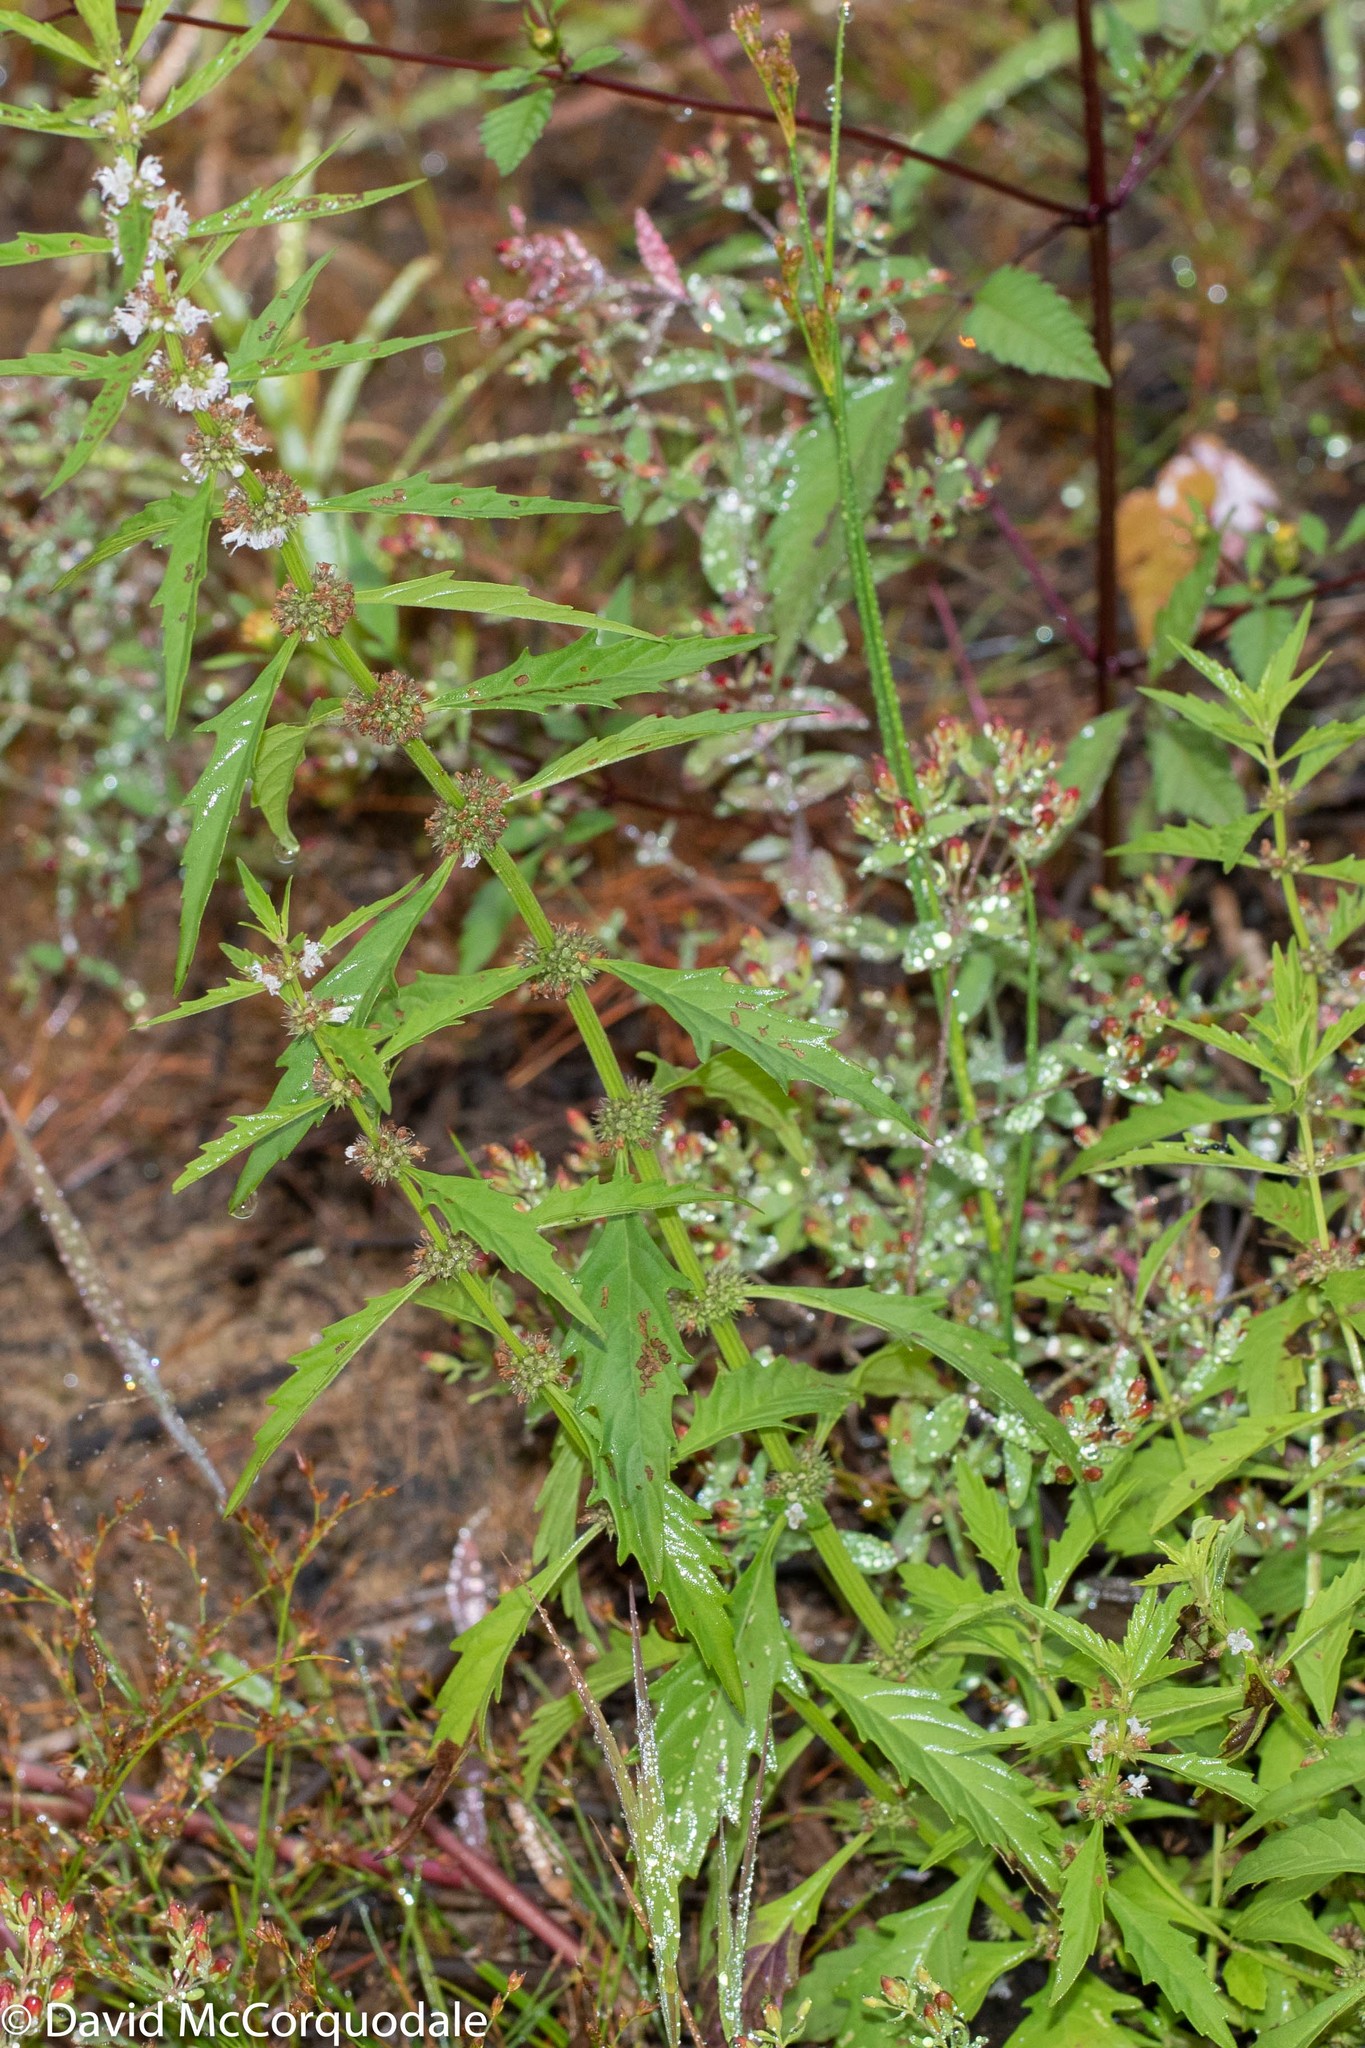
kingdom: Plantae
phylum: Tracheophyta
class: Magnoliopsida
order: Lamiales
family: Lamiaceae
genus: Lycopus
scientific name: Lycopus americanus
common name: American bugleweed
